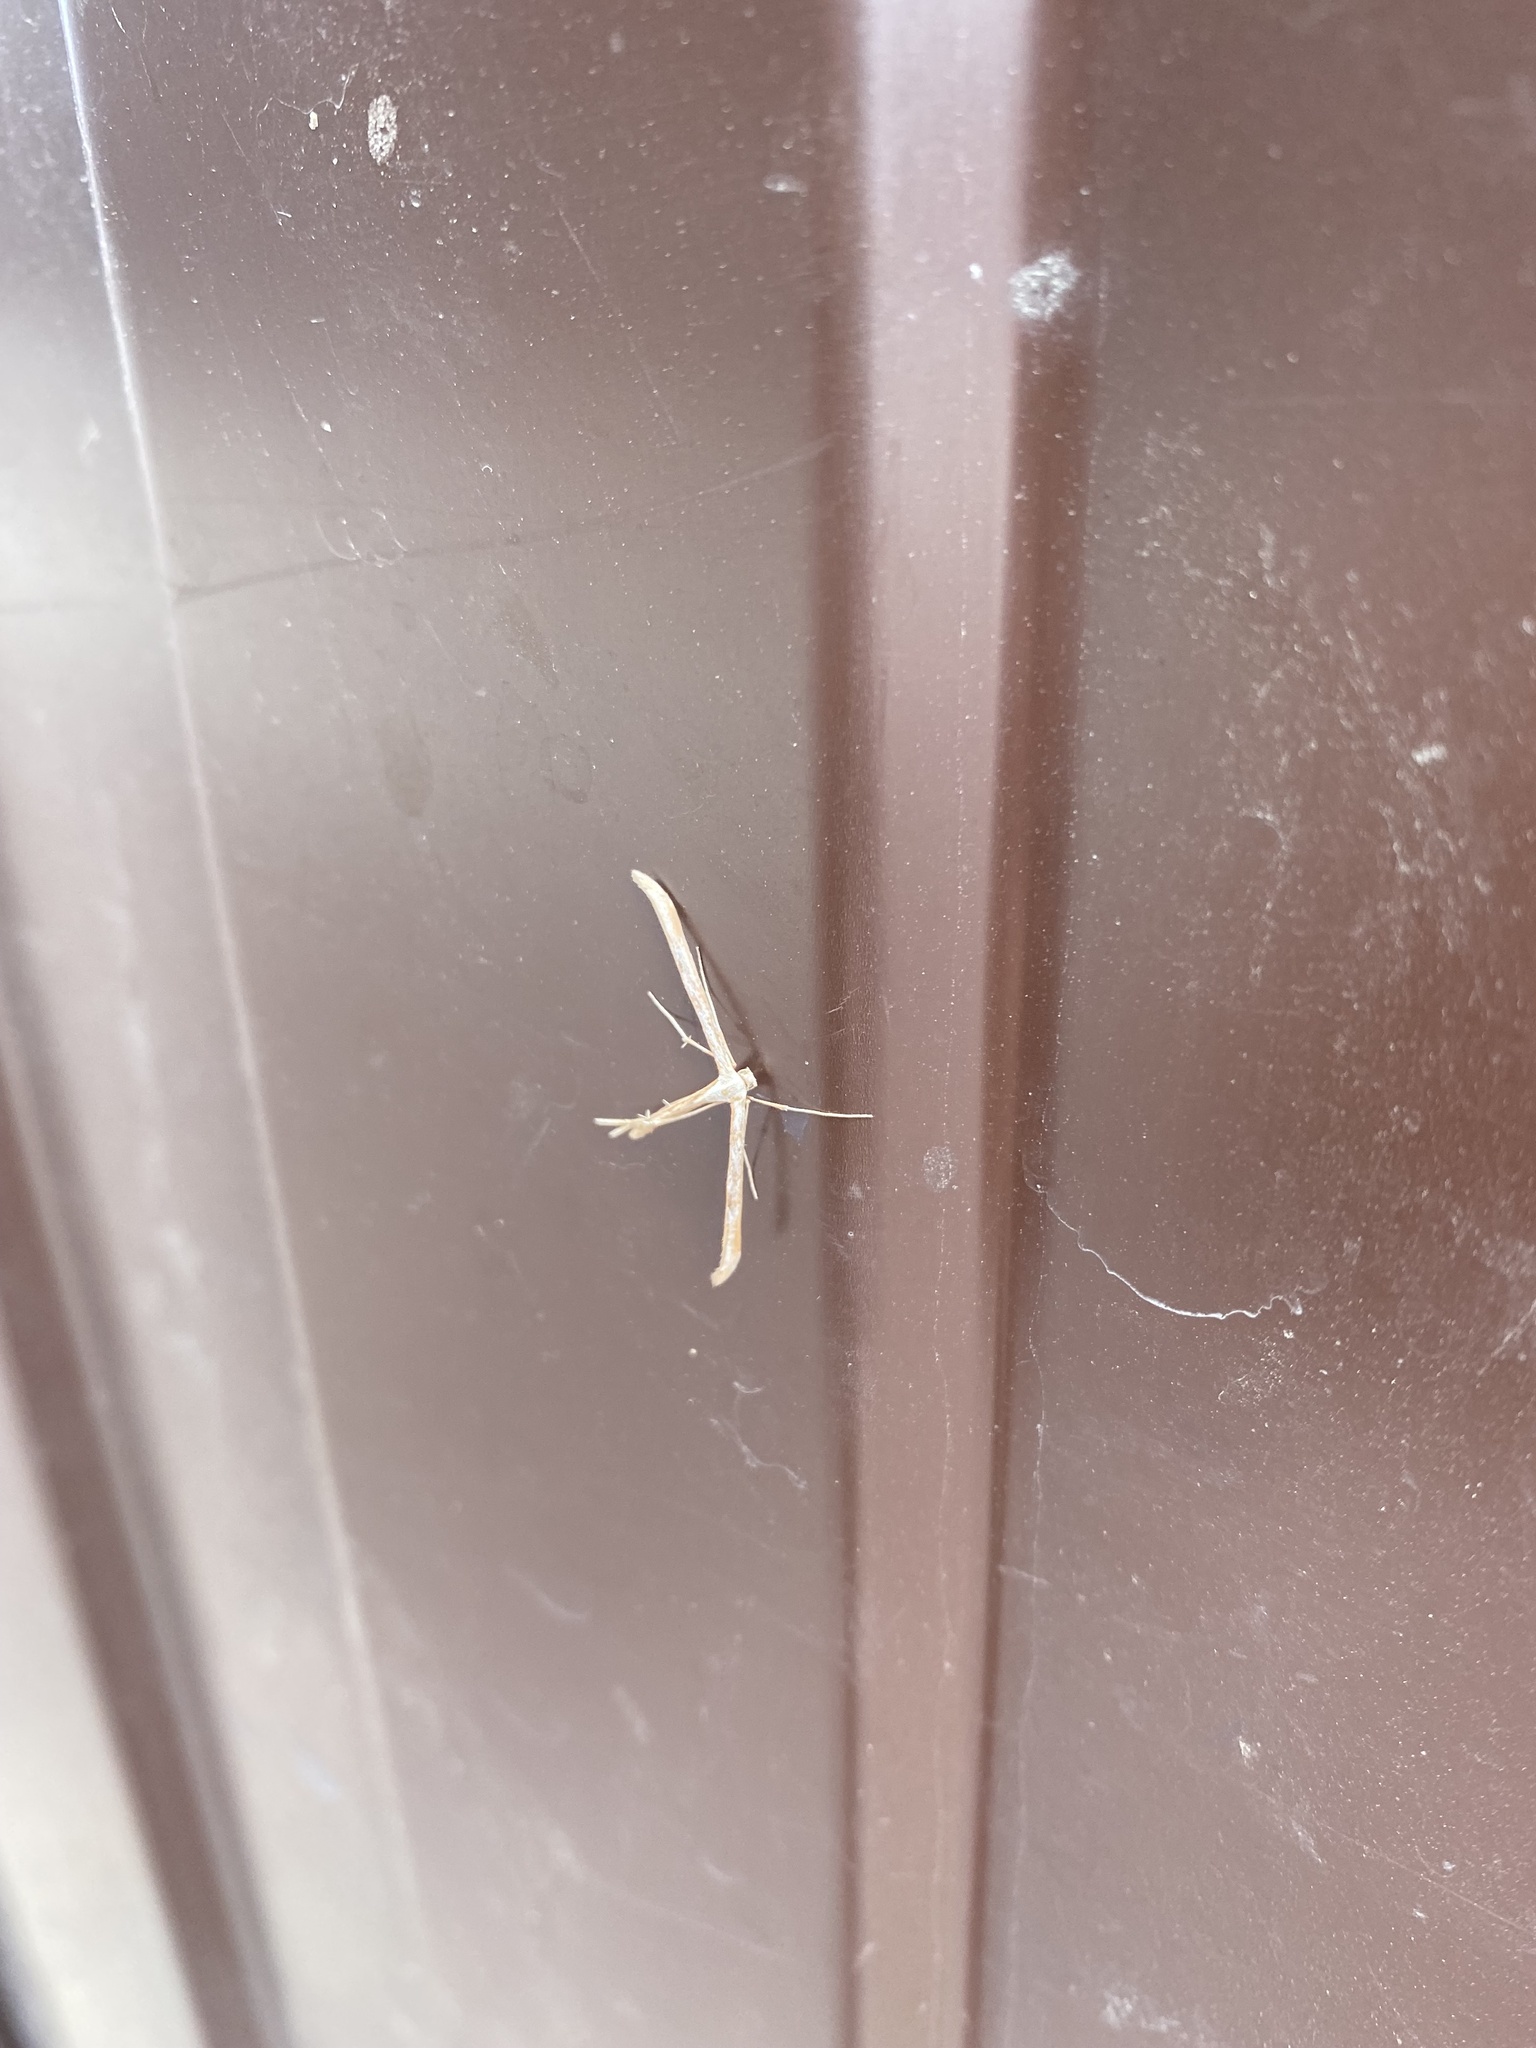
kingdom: Animalia
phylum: Arthropoda
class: Insecta
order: Lepidoptera
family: Pterophoridae
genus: Emmelina
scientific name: Emmelina monodactyla
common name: Common plume
